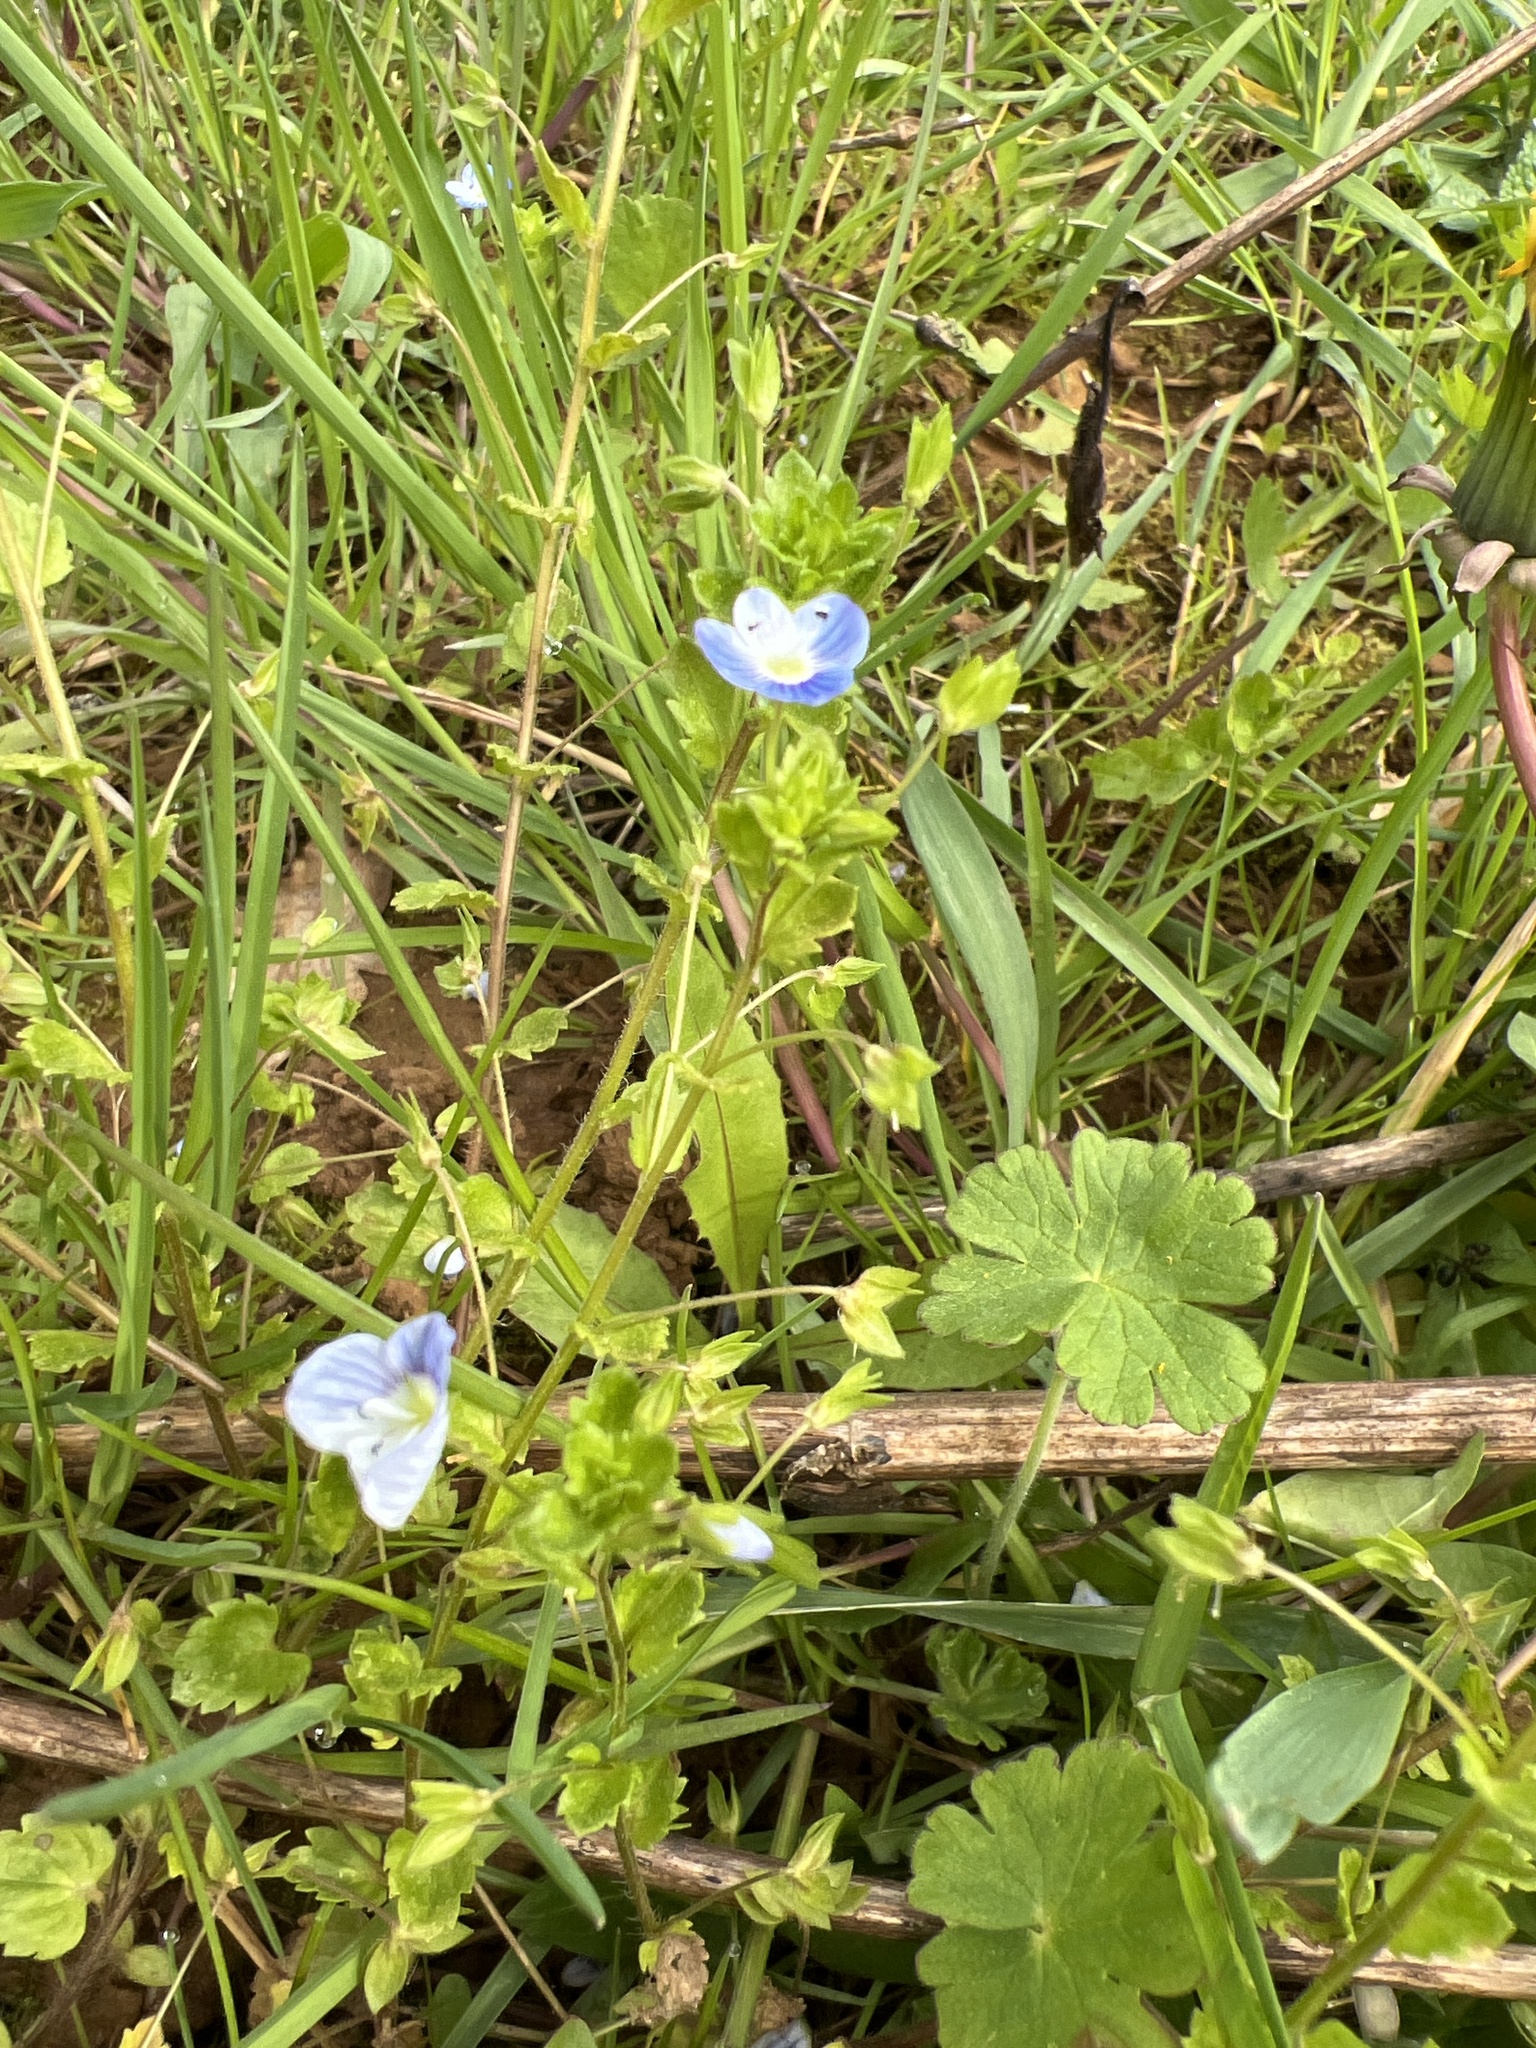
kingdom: Plantae
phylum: Tracheophyta
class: Magnoliopsida
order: Lamiales
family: Plantaginaceae
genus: Veronica
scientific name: Veronica persica
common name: Common field-speedwell
